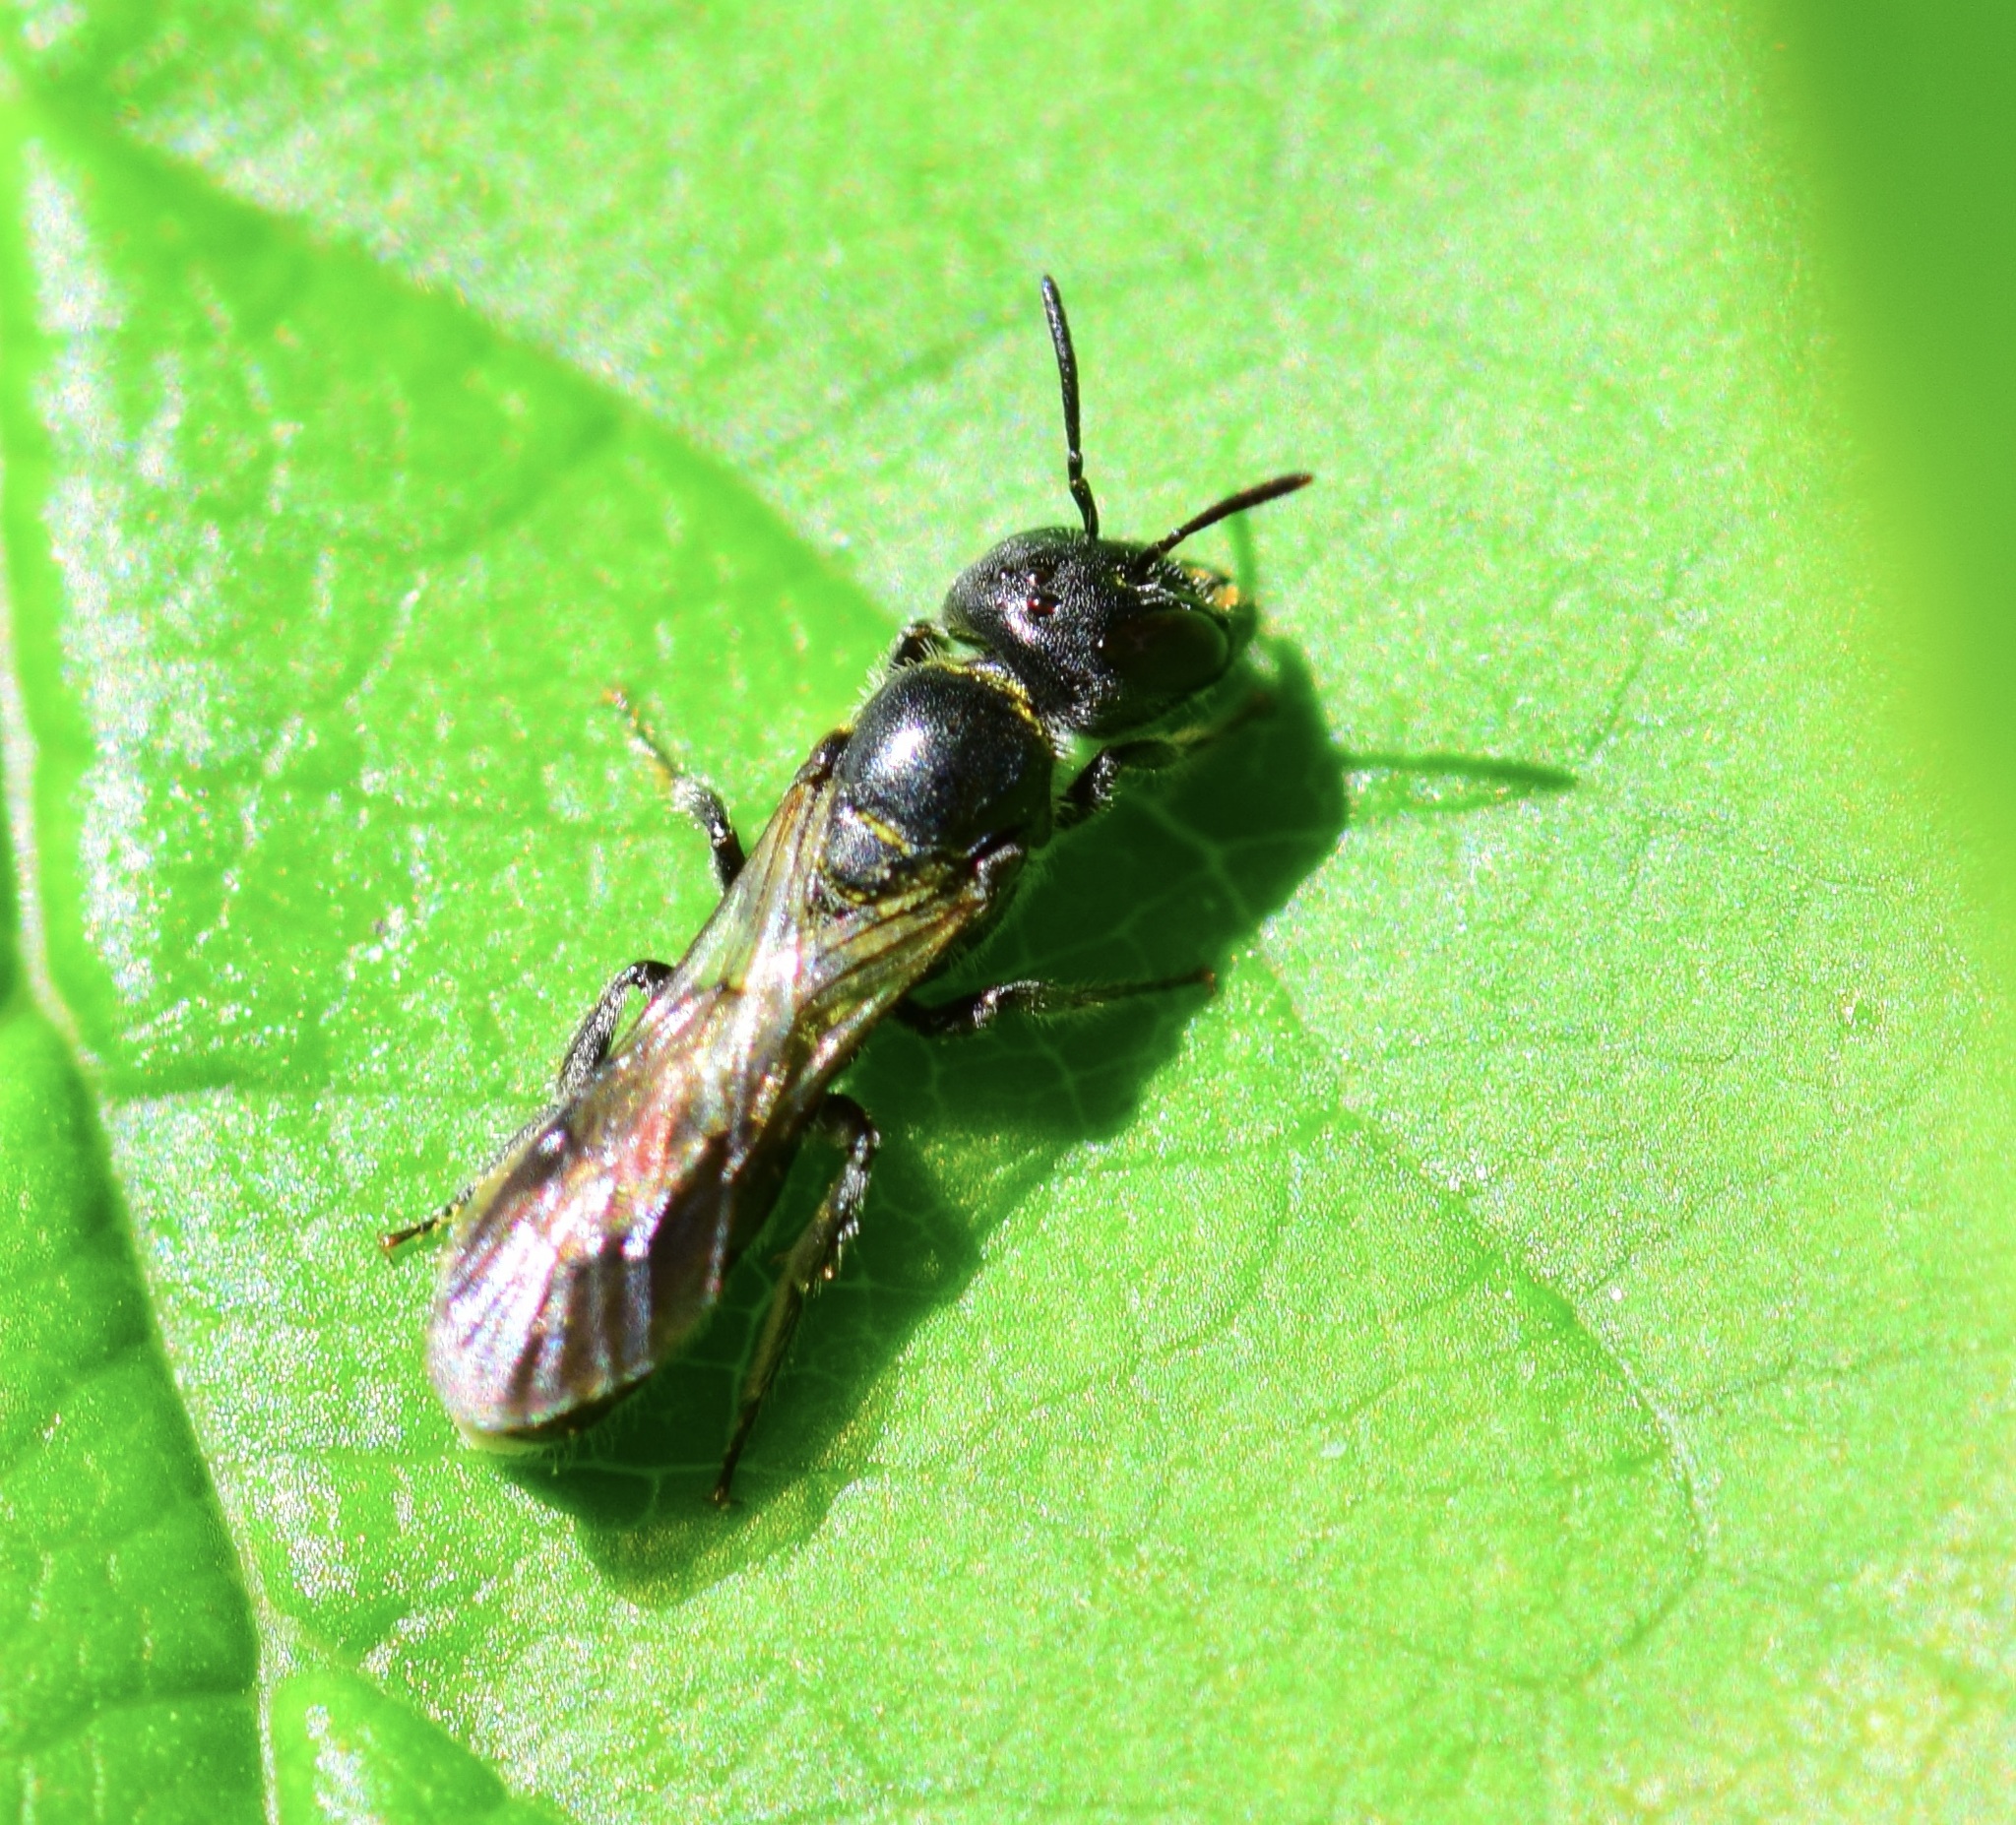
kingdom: Animalia
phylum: Arthropoda
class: Insecta
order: Hymenoptera
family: Megachilidae
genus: Chelostoma
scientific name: Chelostoma philadelphi
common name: Mock-orange scissor bee
